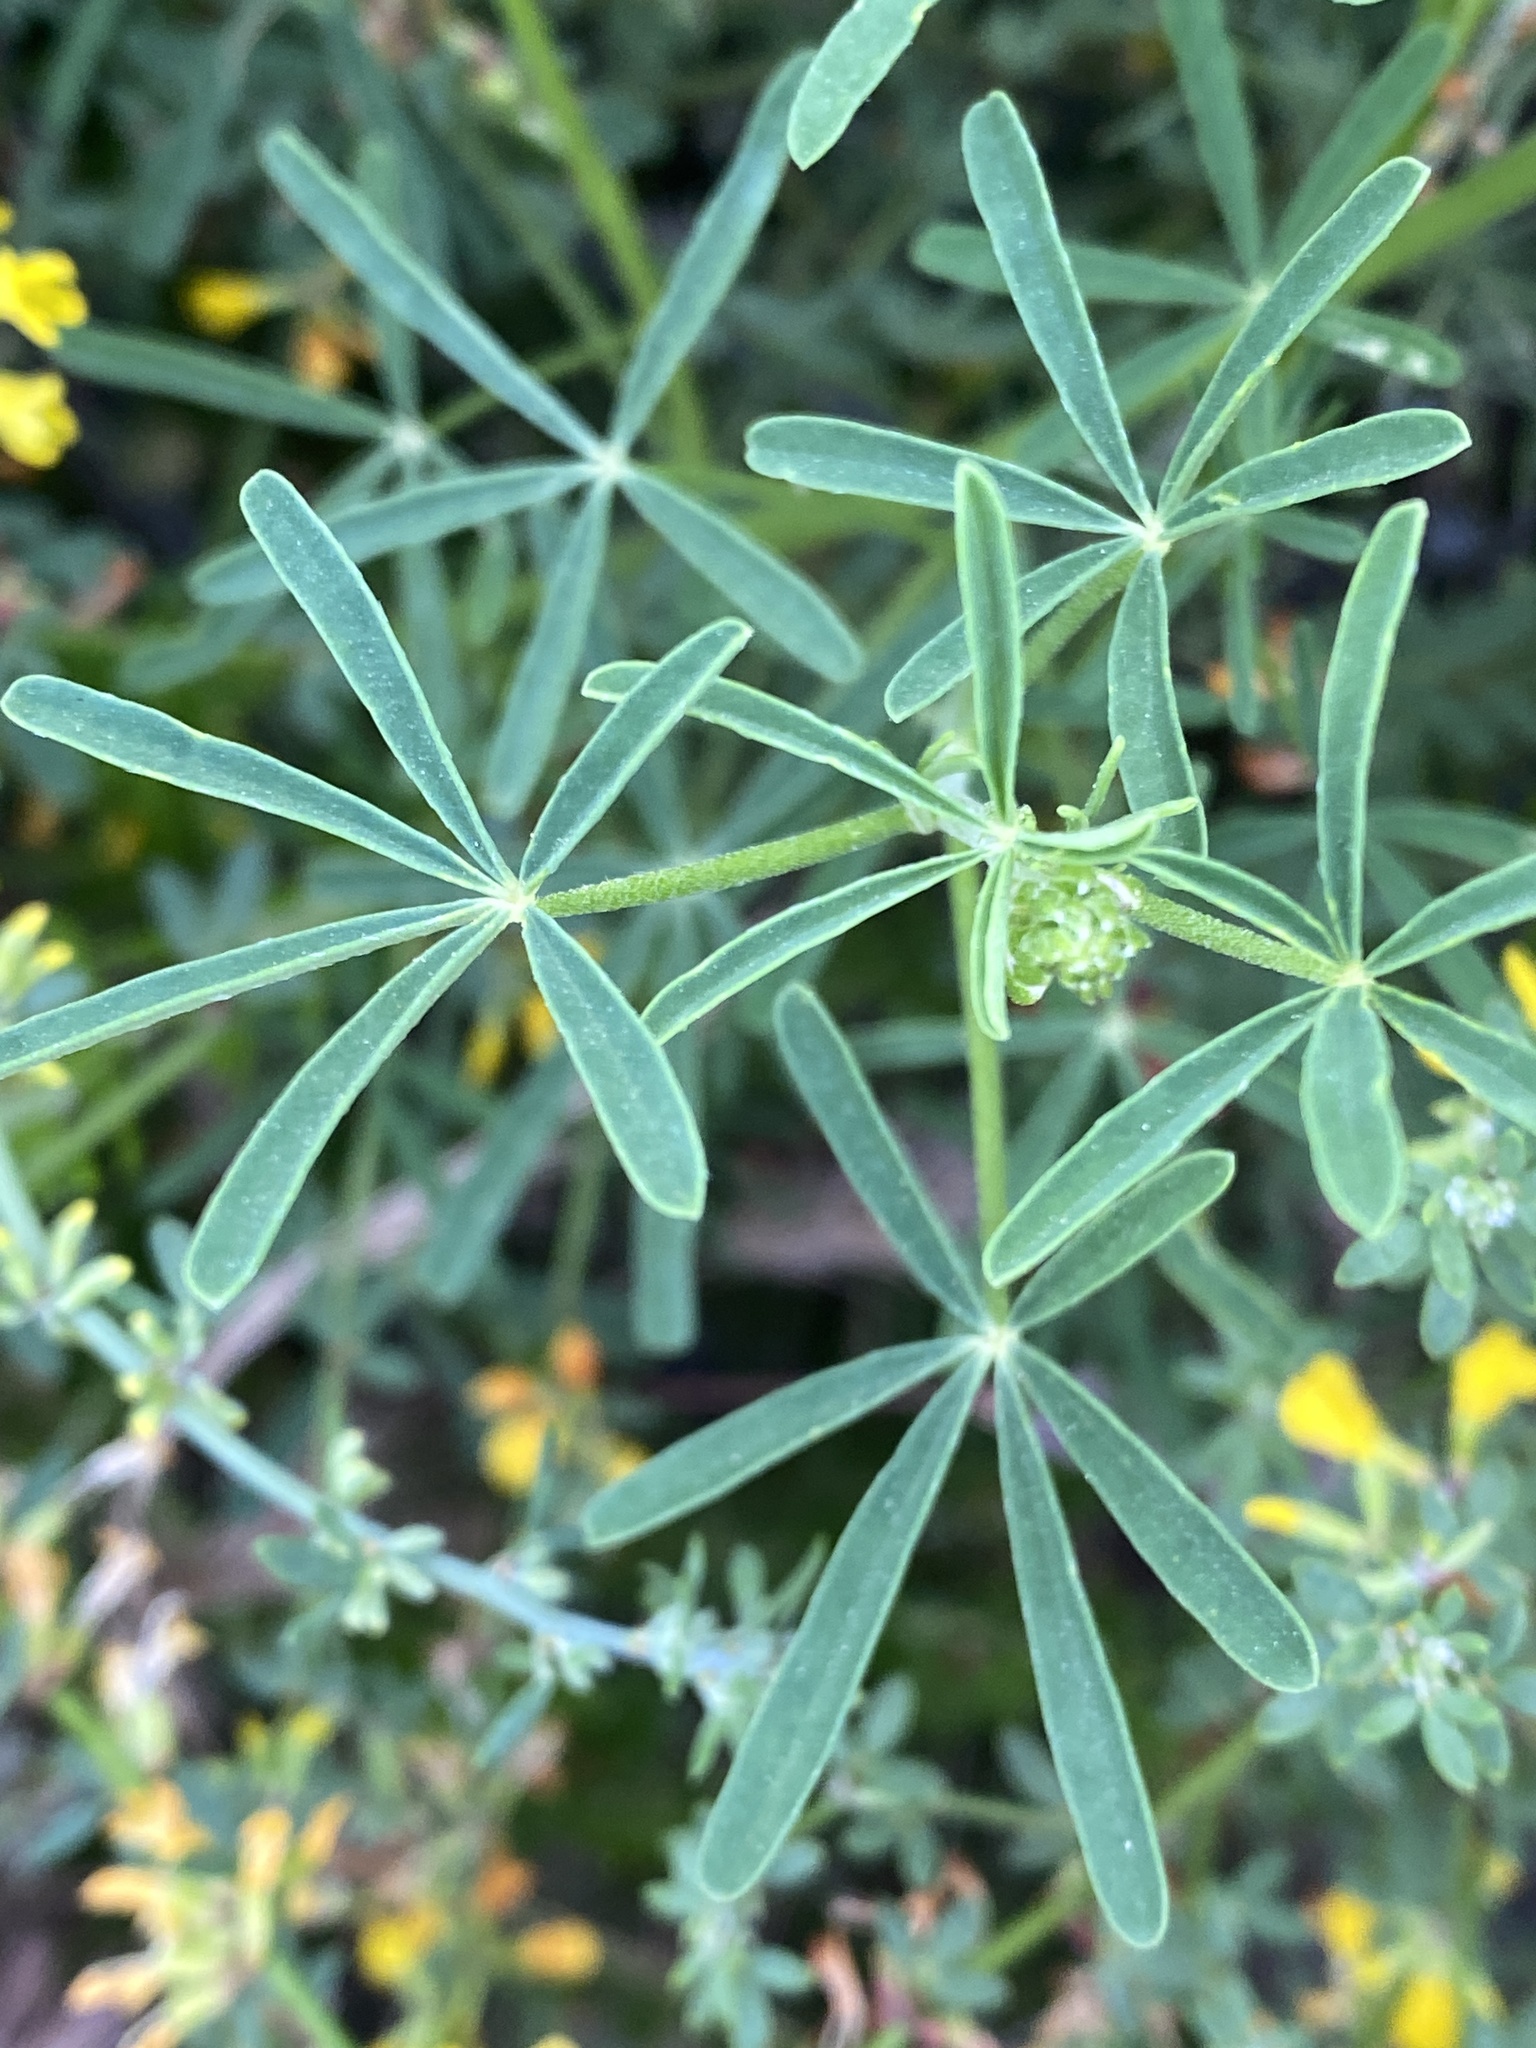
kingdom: Plantae
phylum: Tracheophyta
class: Magnoliopsida
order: Fabales
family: Fabaceae
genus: Lupinus
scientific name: Lupinus truncatus
